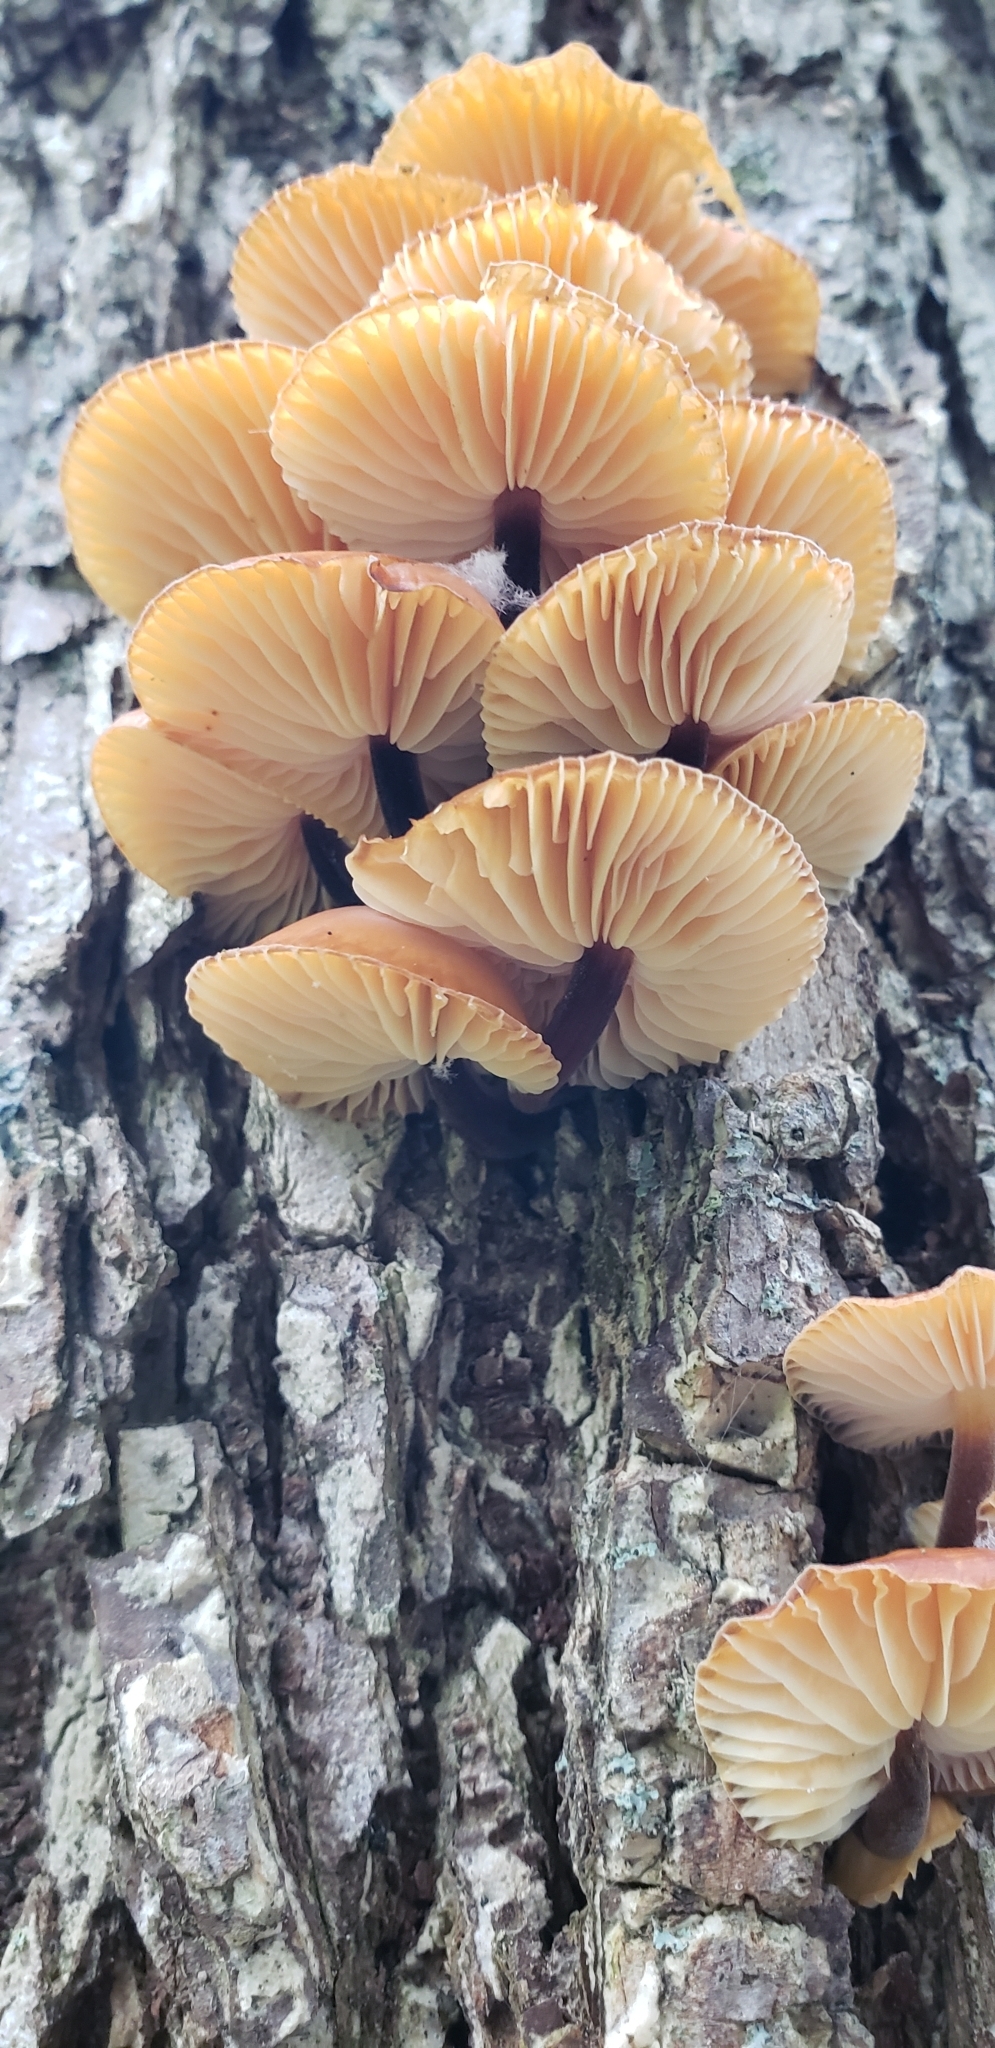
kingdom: Fungi
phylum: Basidiomycota
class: Agaricomycetes
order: Agaricales
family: Physalacriaceae
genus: Flammulina
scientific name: Flammulina velutipes
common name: Velvet shank
